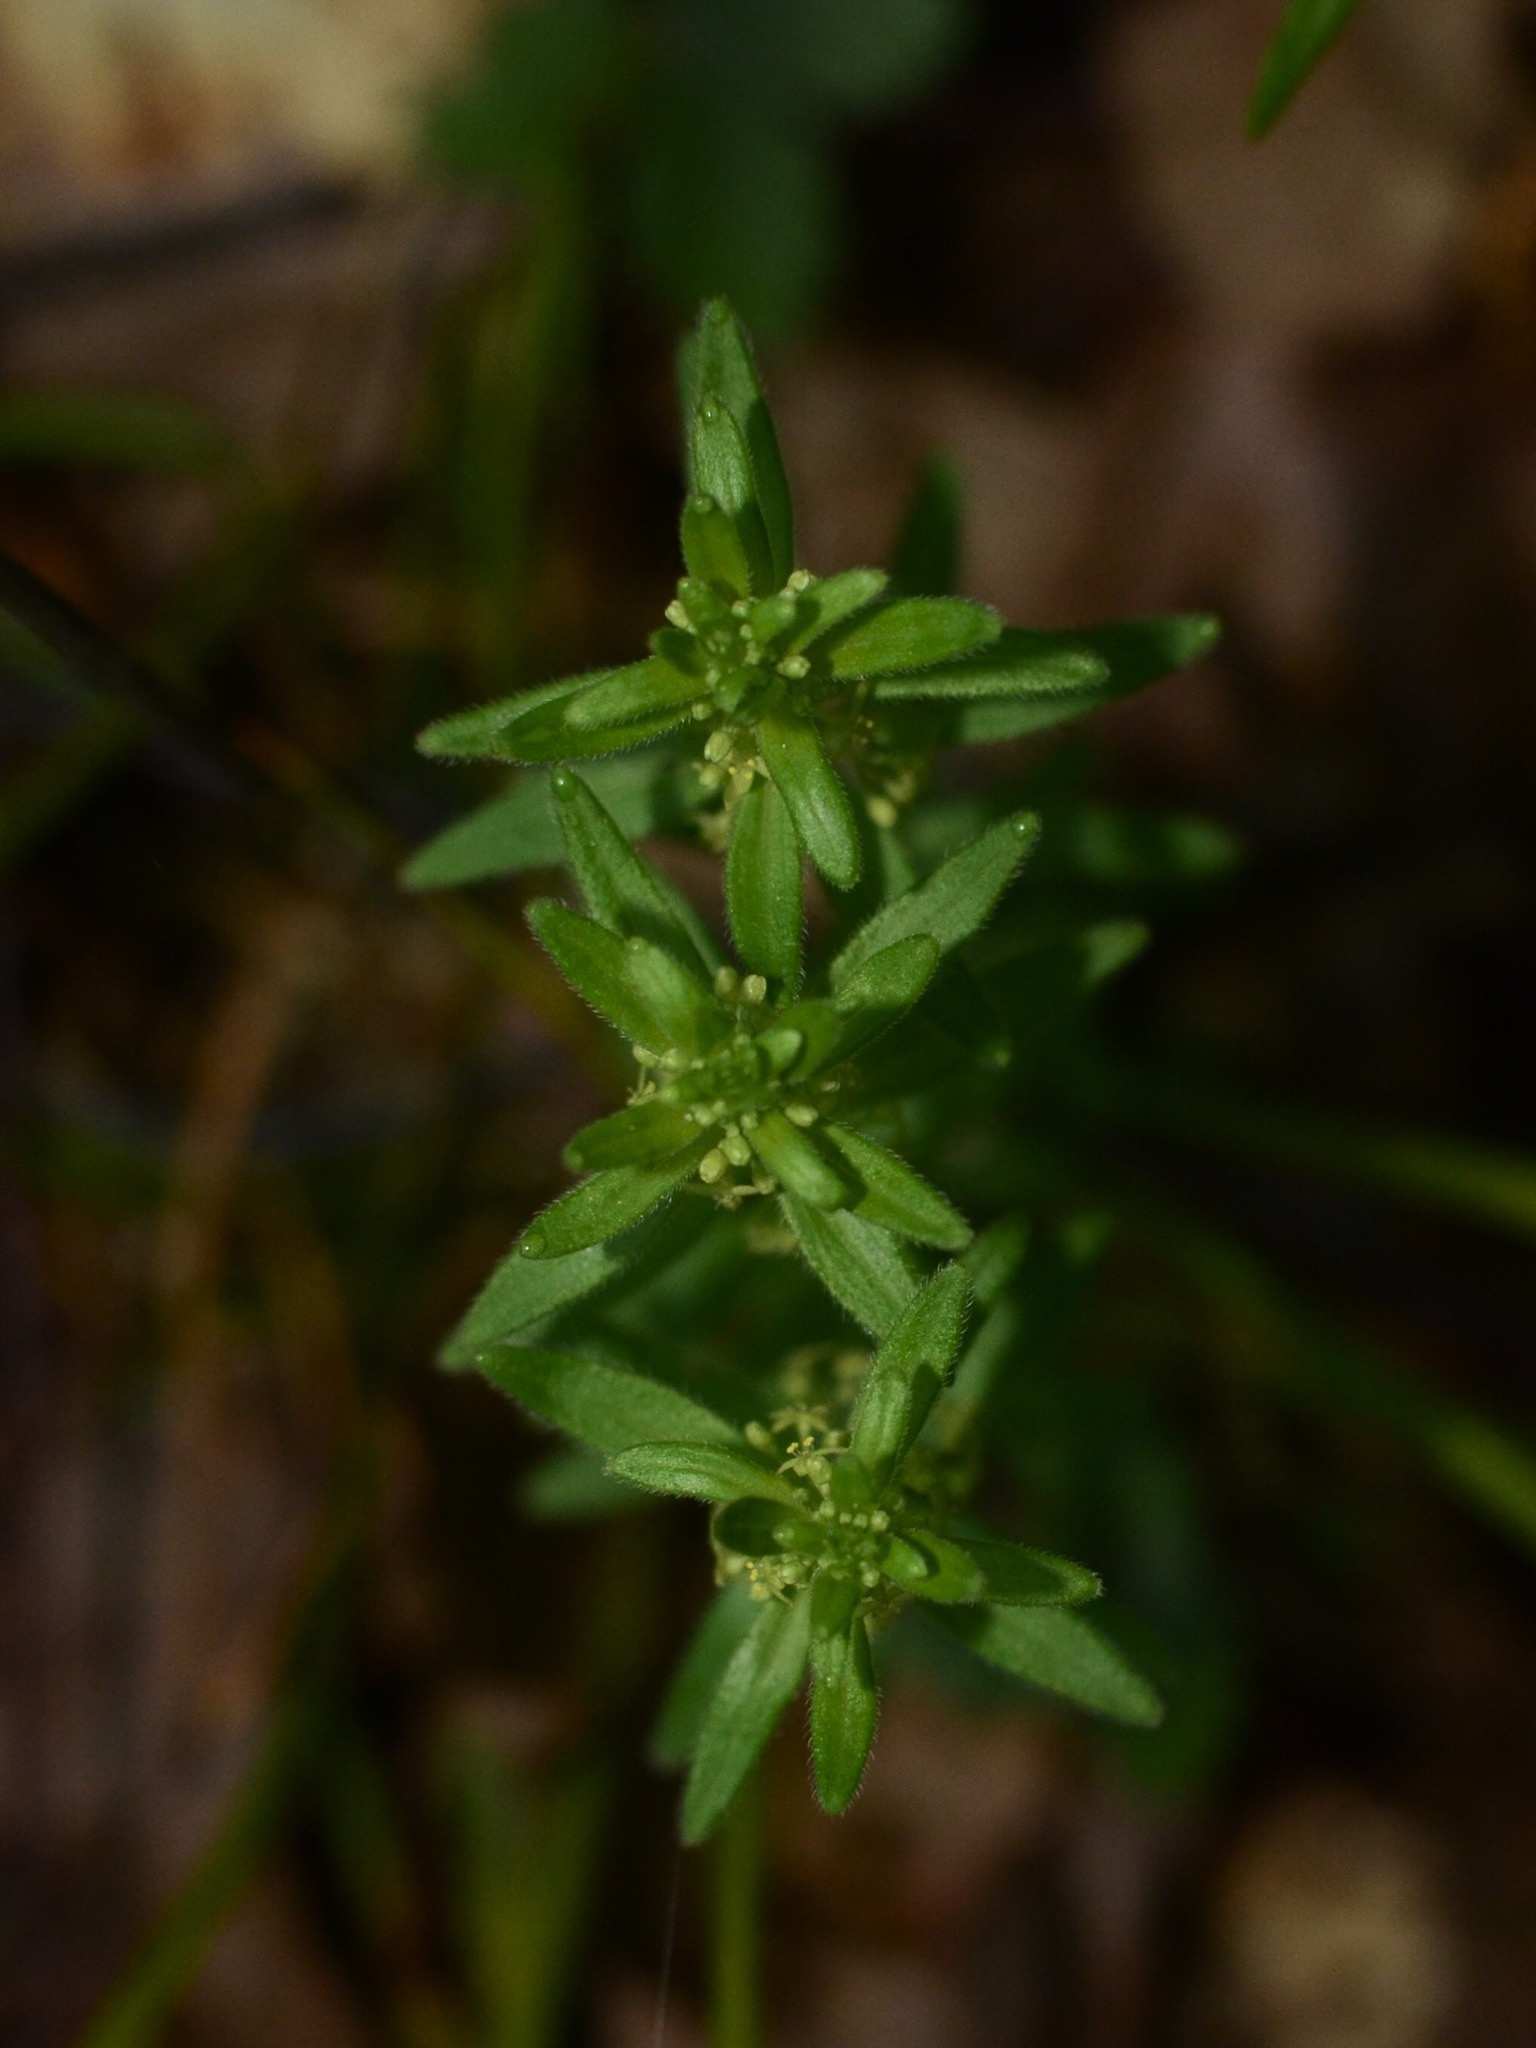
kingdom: Plantae
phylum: Tracheophyta
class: Magnoliopsida
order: Gentianales
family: Rubiaceae
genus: Cruciata
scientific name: Cruciata glabra
